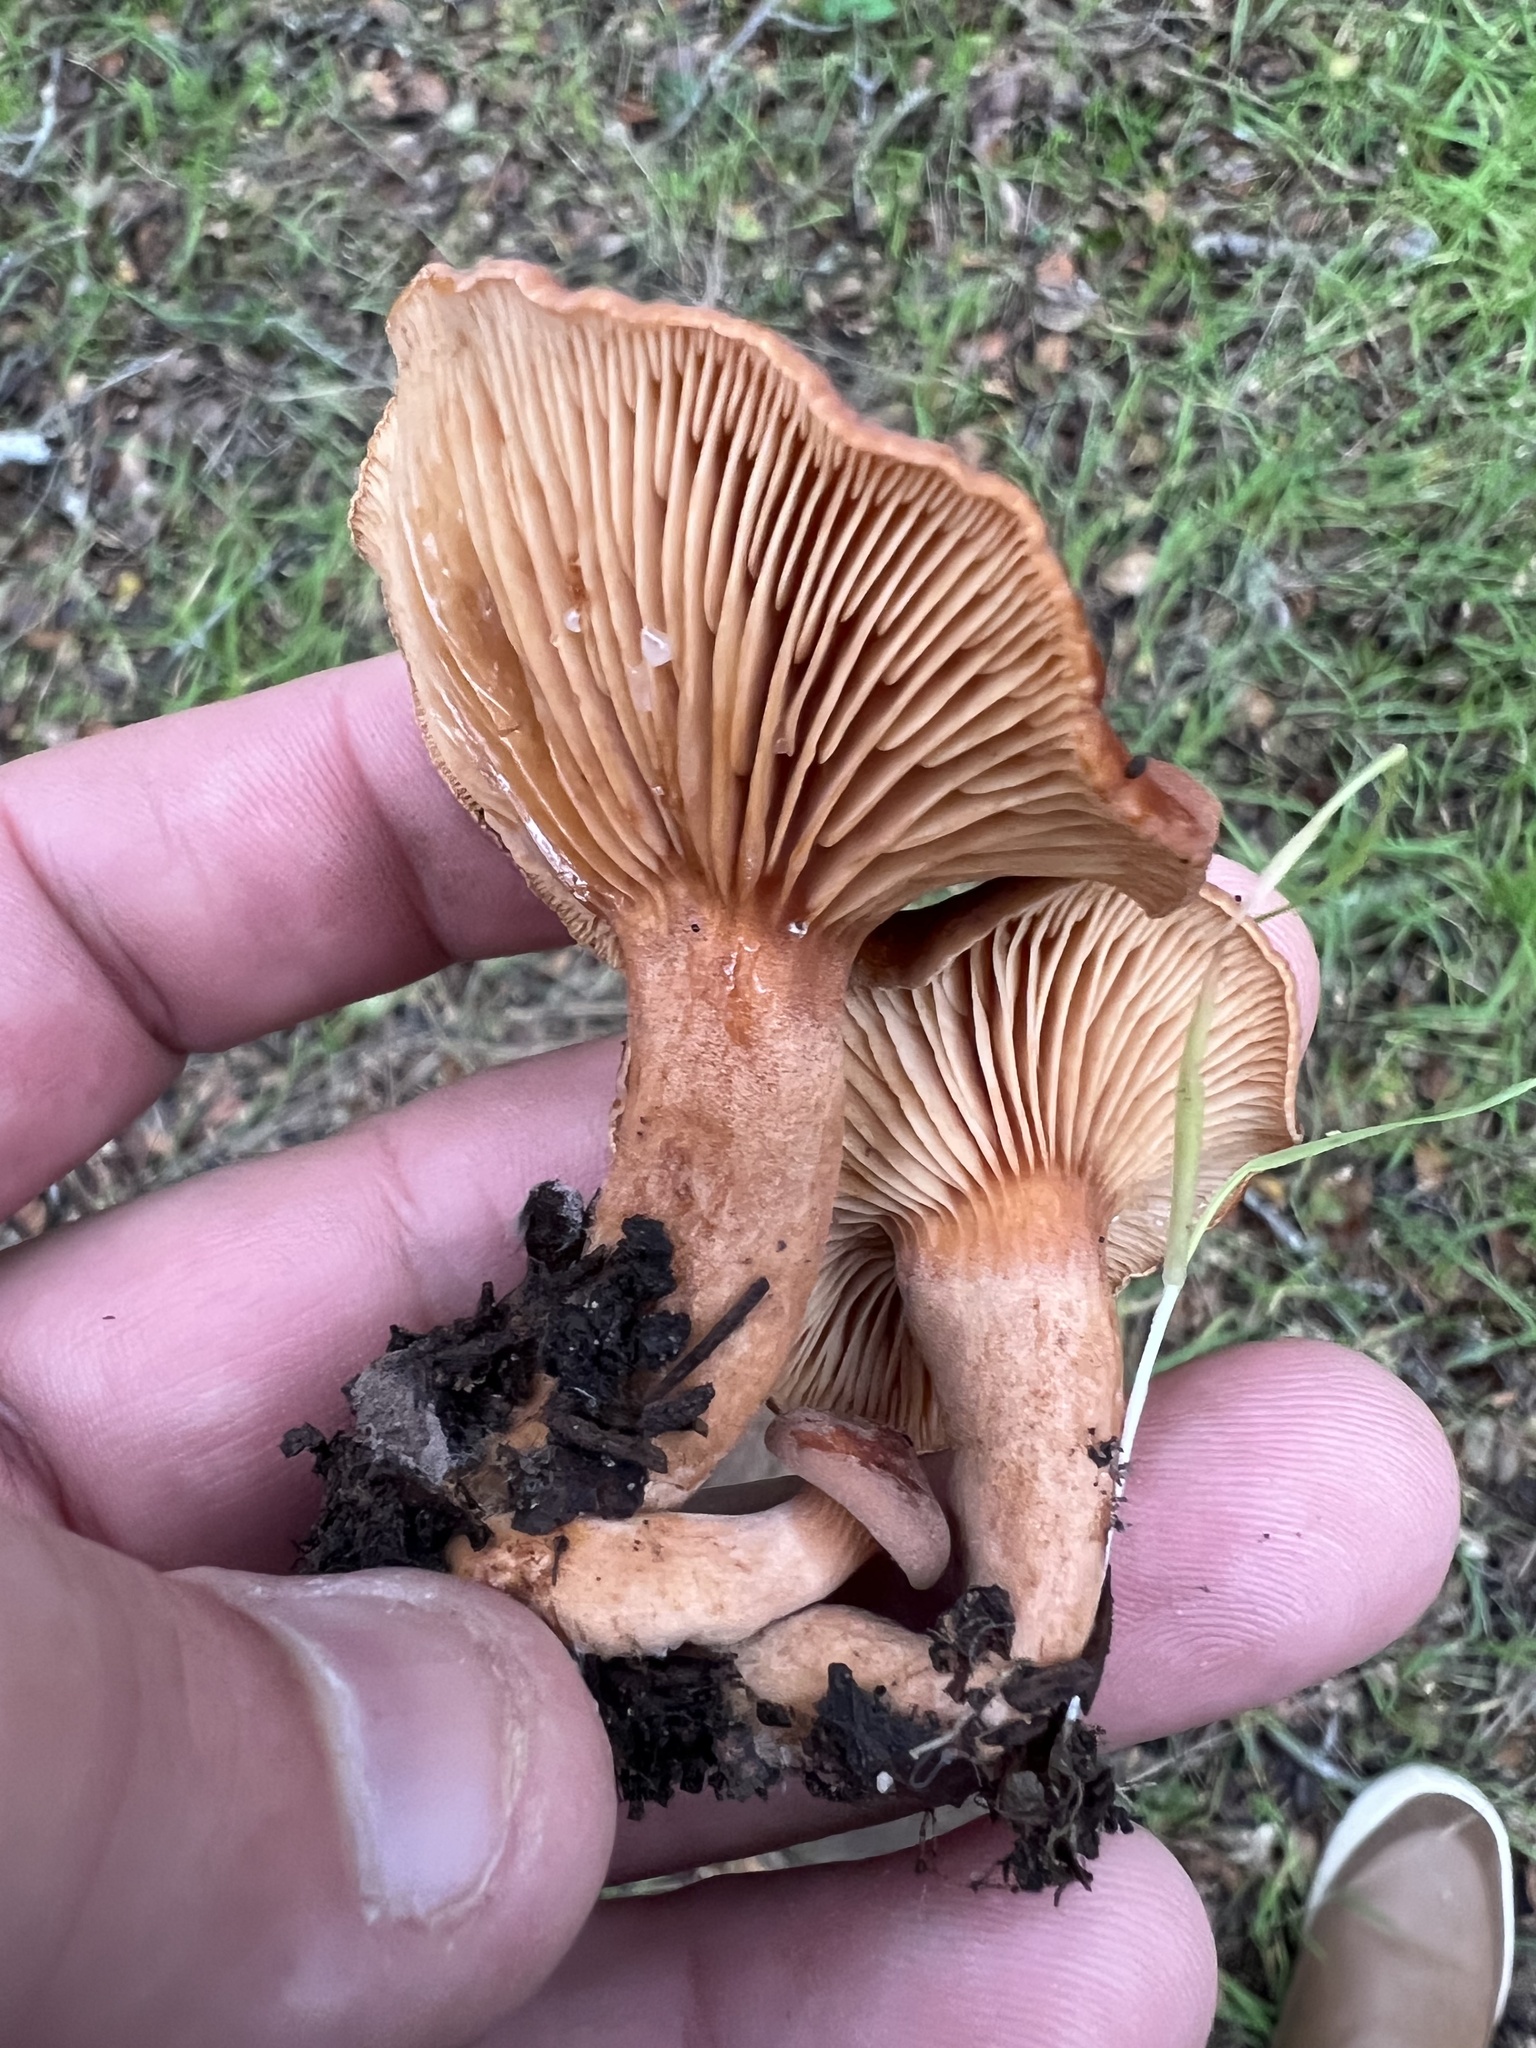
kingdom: Fungi
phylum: Basidiomycota
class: Agaricomycetes
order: Russulales
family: Russulaceae
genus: Lactarius
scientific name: Lactarius rubidus
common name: Candy cap
